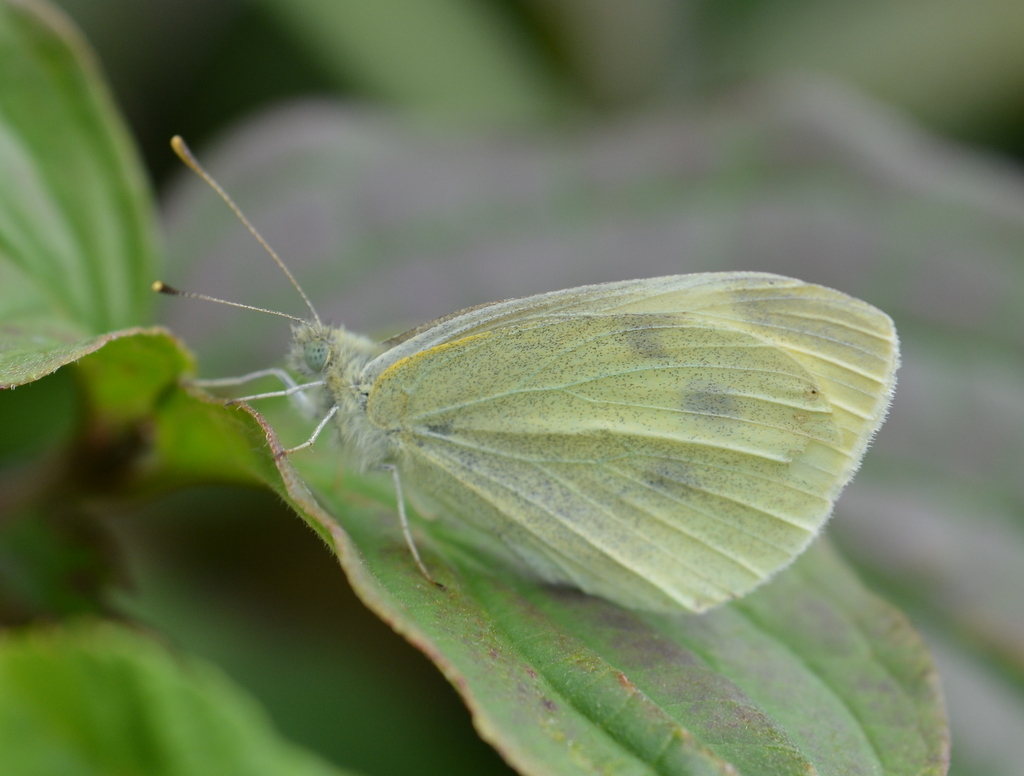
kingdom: Animalia
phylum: Arthropoda
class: Insecta
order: Lepidoptera
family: Pieridae
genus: Pieris
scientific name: Pieris rapae
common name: Small white
